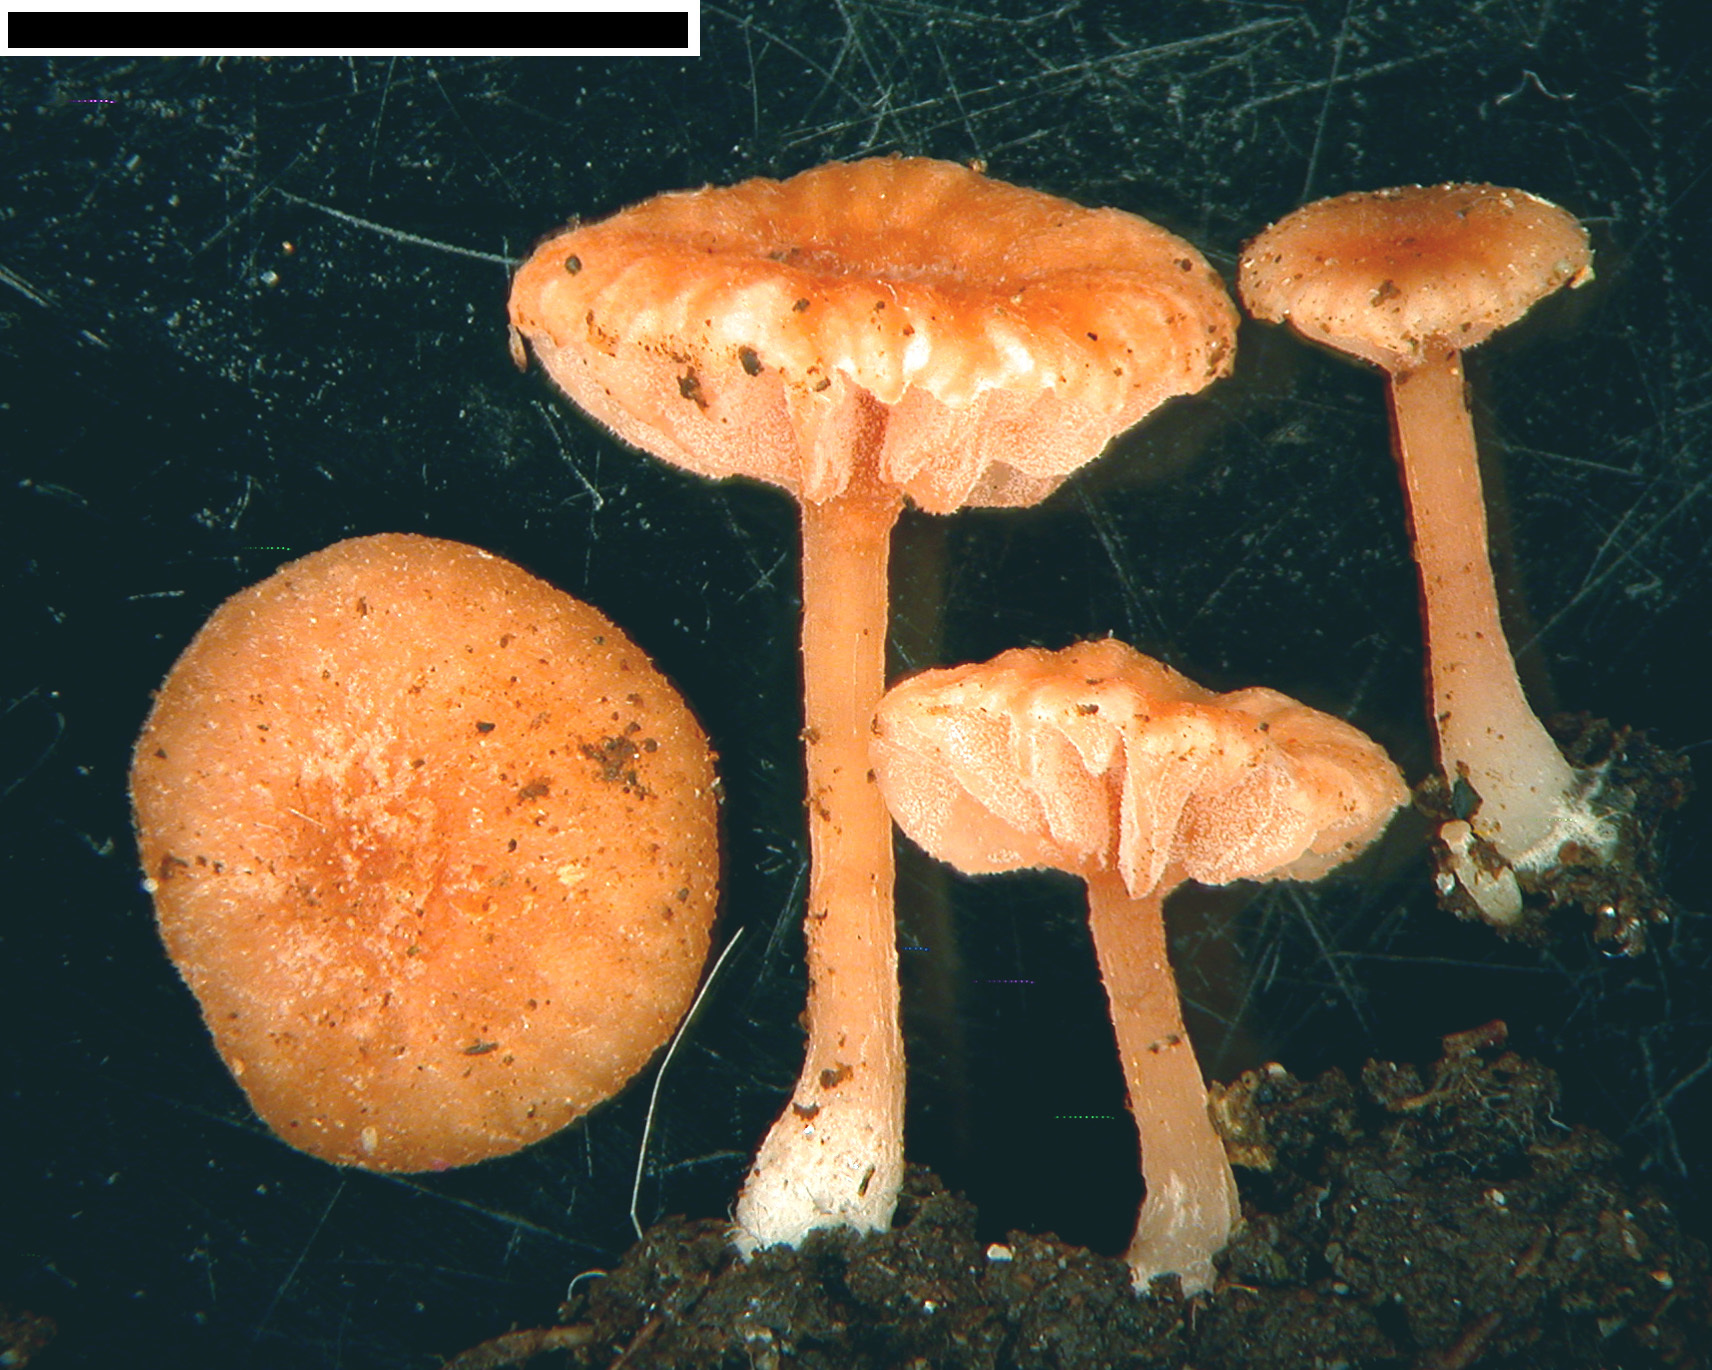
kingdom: Fungi
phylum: Basidiomycota
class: Agaricomycetes
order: Agaricales
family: Hydnangiaceae
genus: Laccaria
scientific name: Laccaria tortilis
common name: Twisted deceiver
